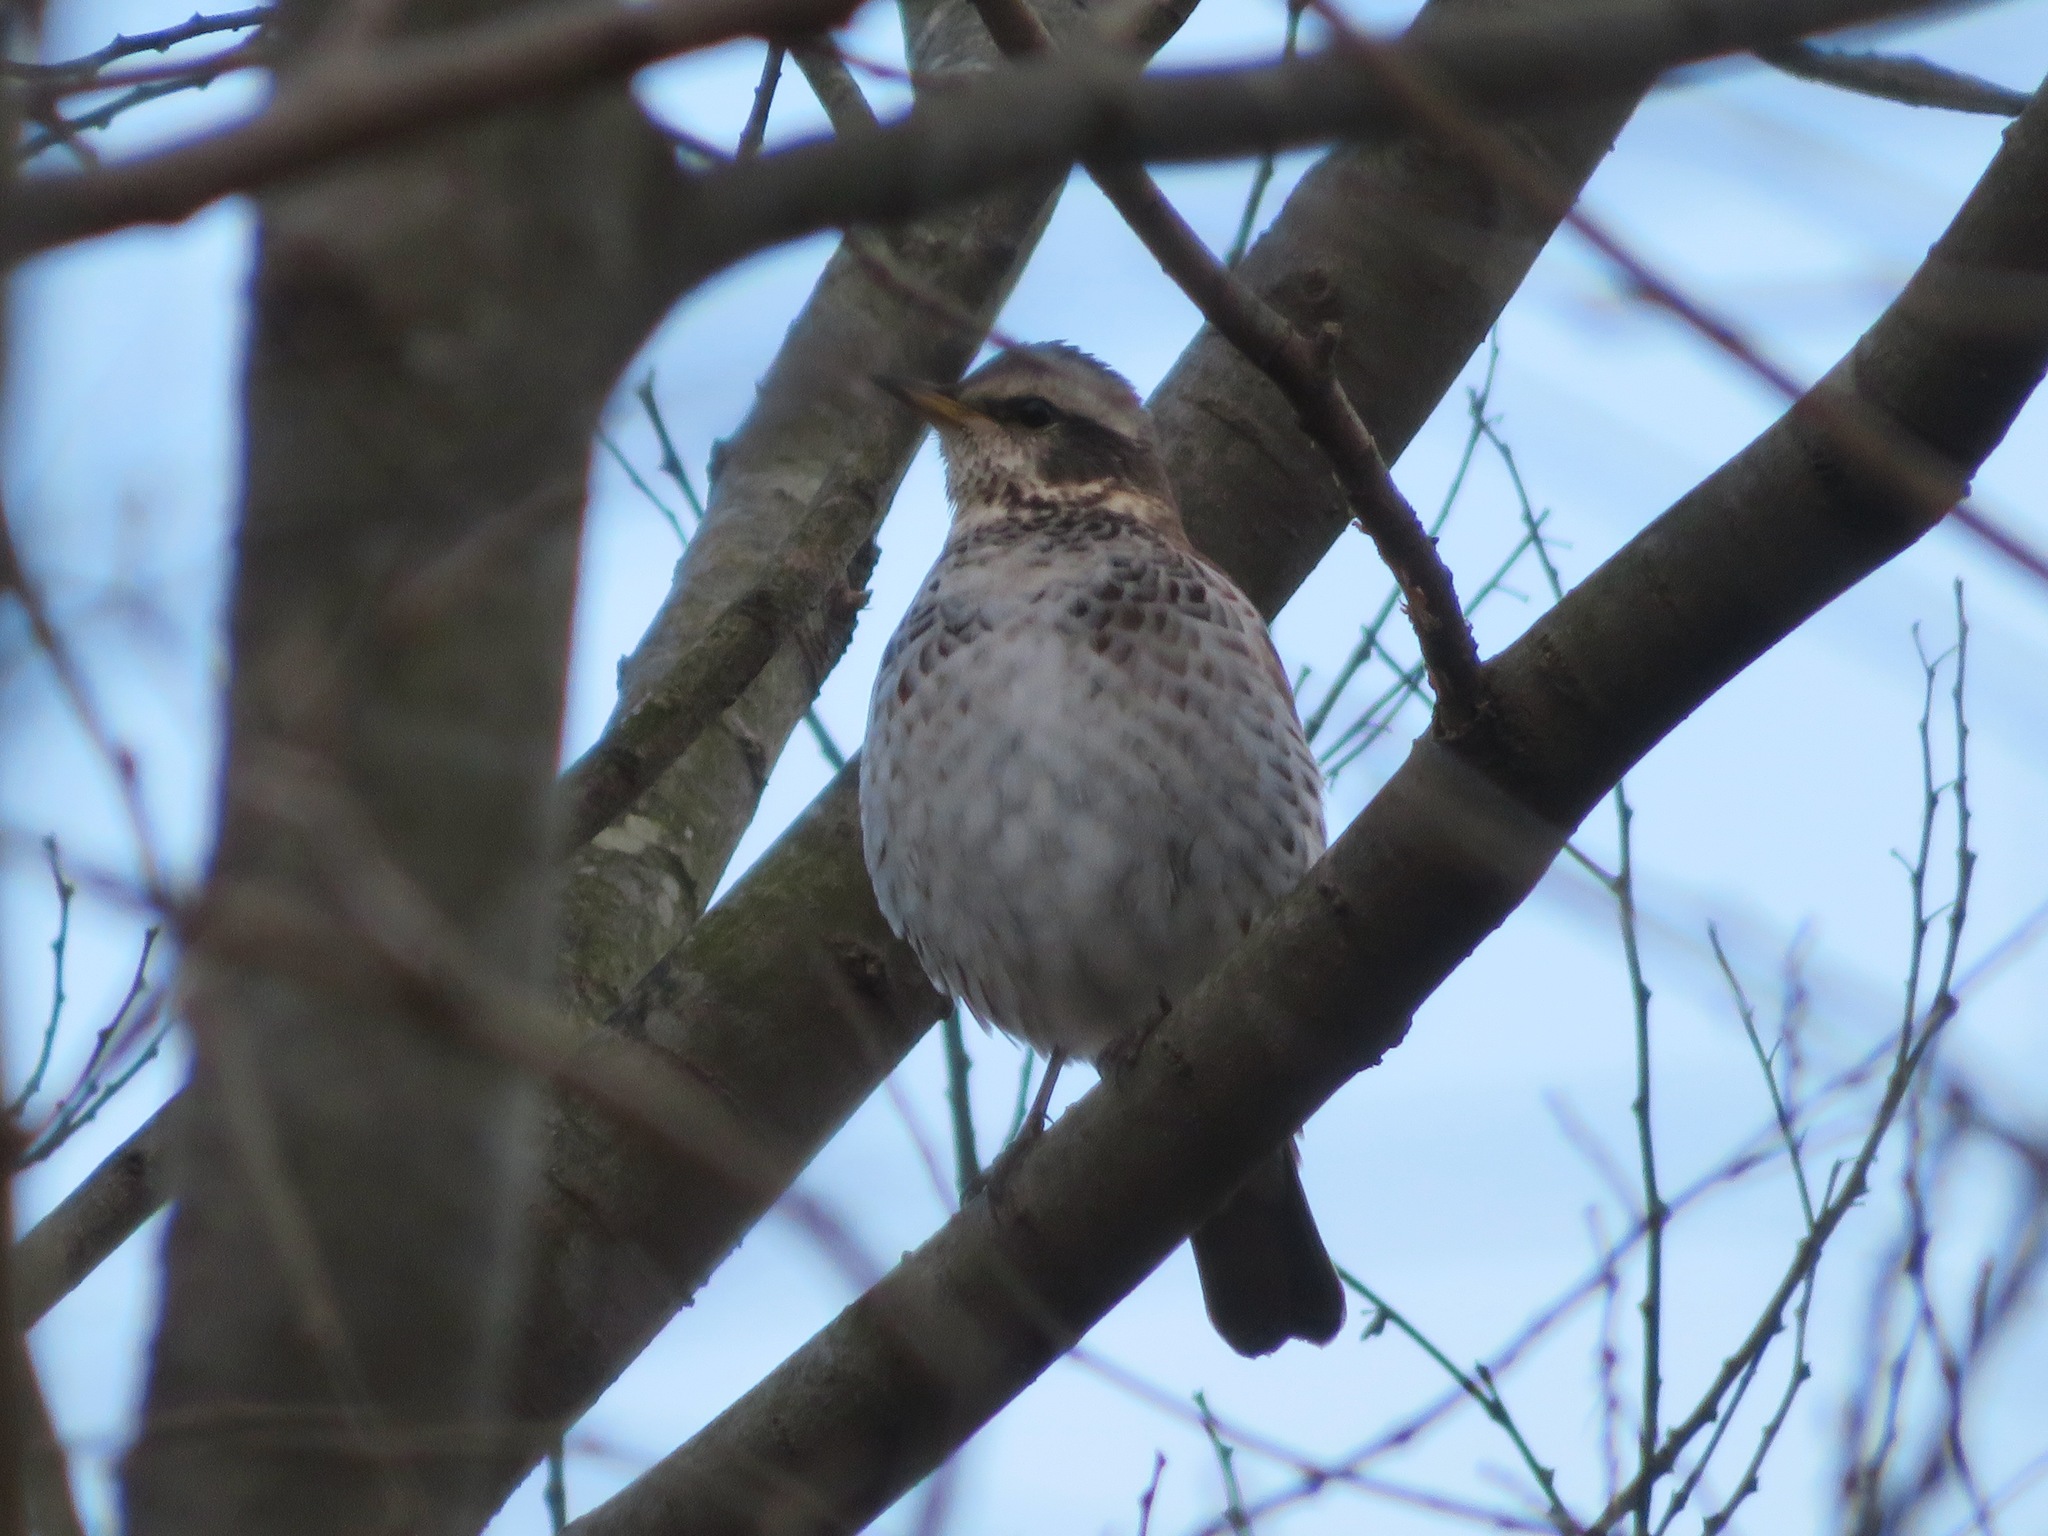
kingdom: Animalia
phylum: Chordata
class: Aves
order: Passeriformes
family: Turdidae
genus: Turdus
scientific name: Turdus eunomus
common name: Dusky thrush
